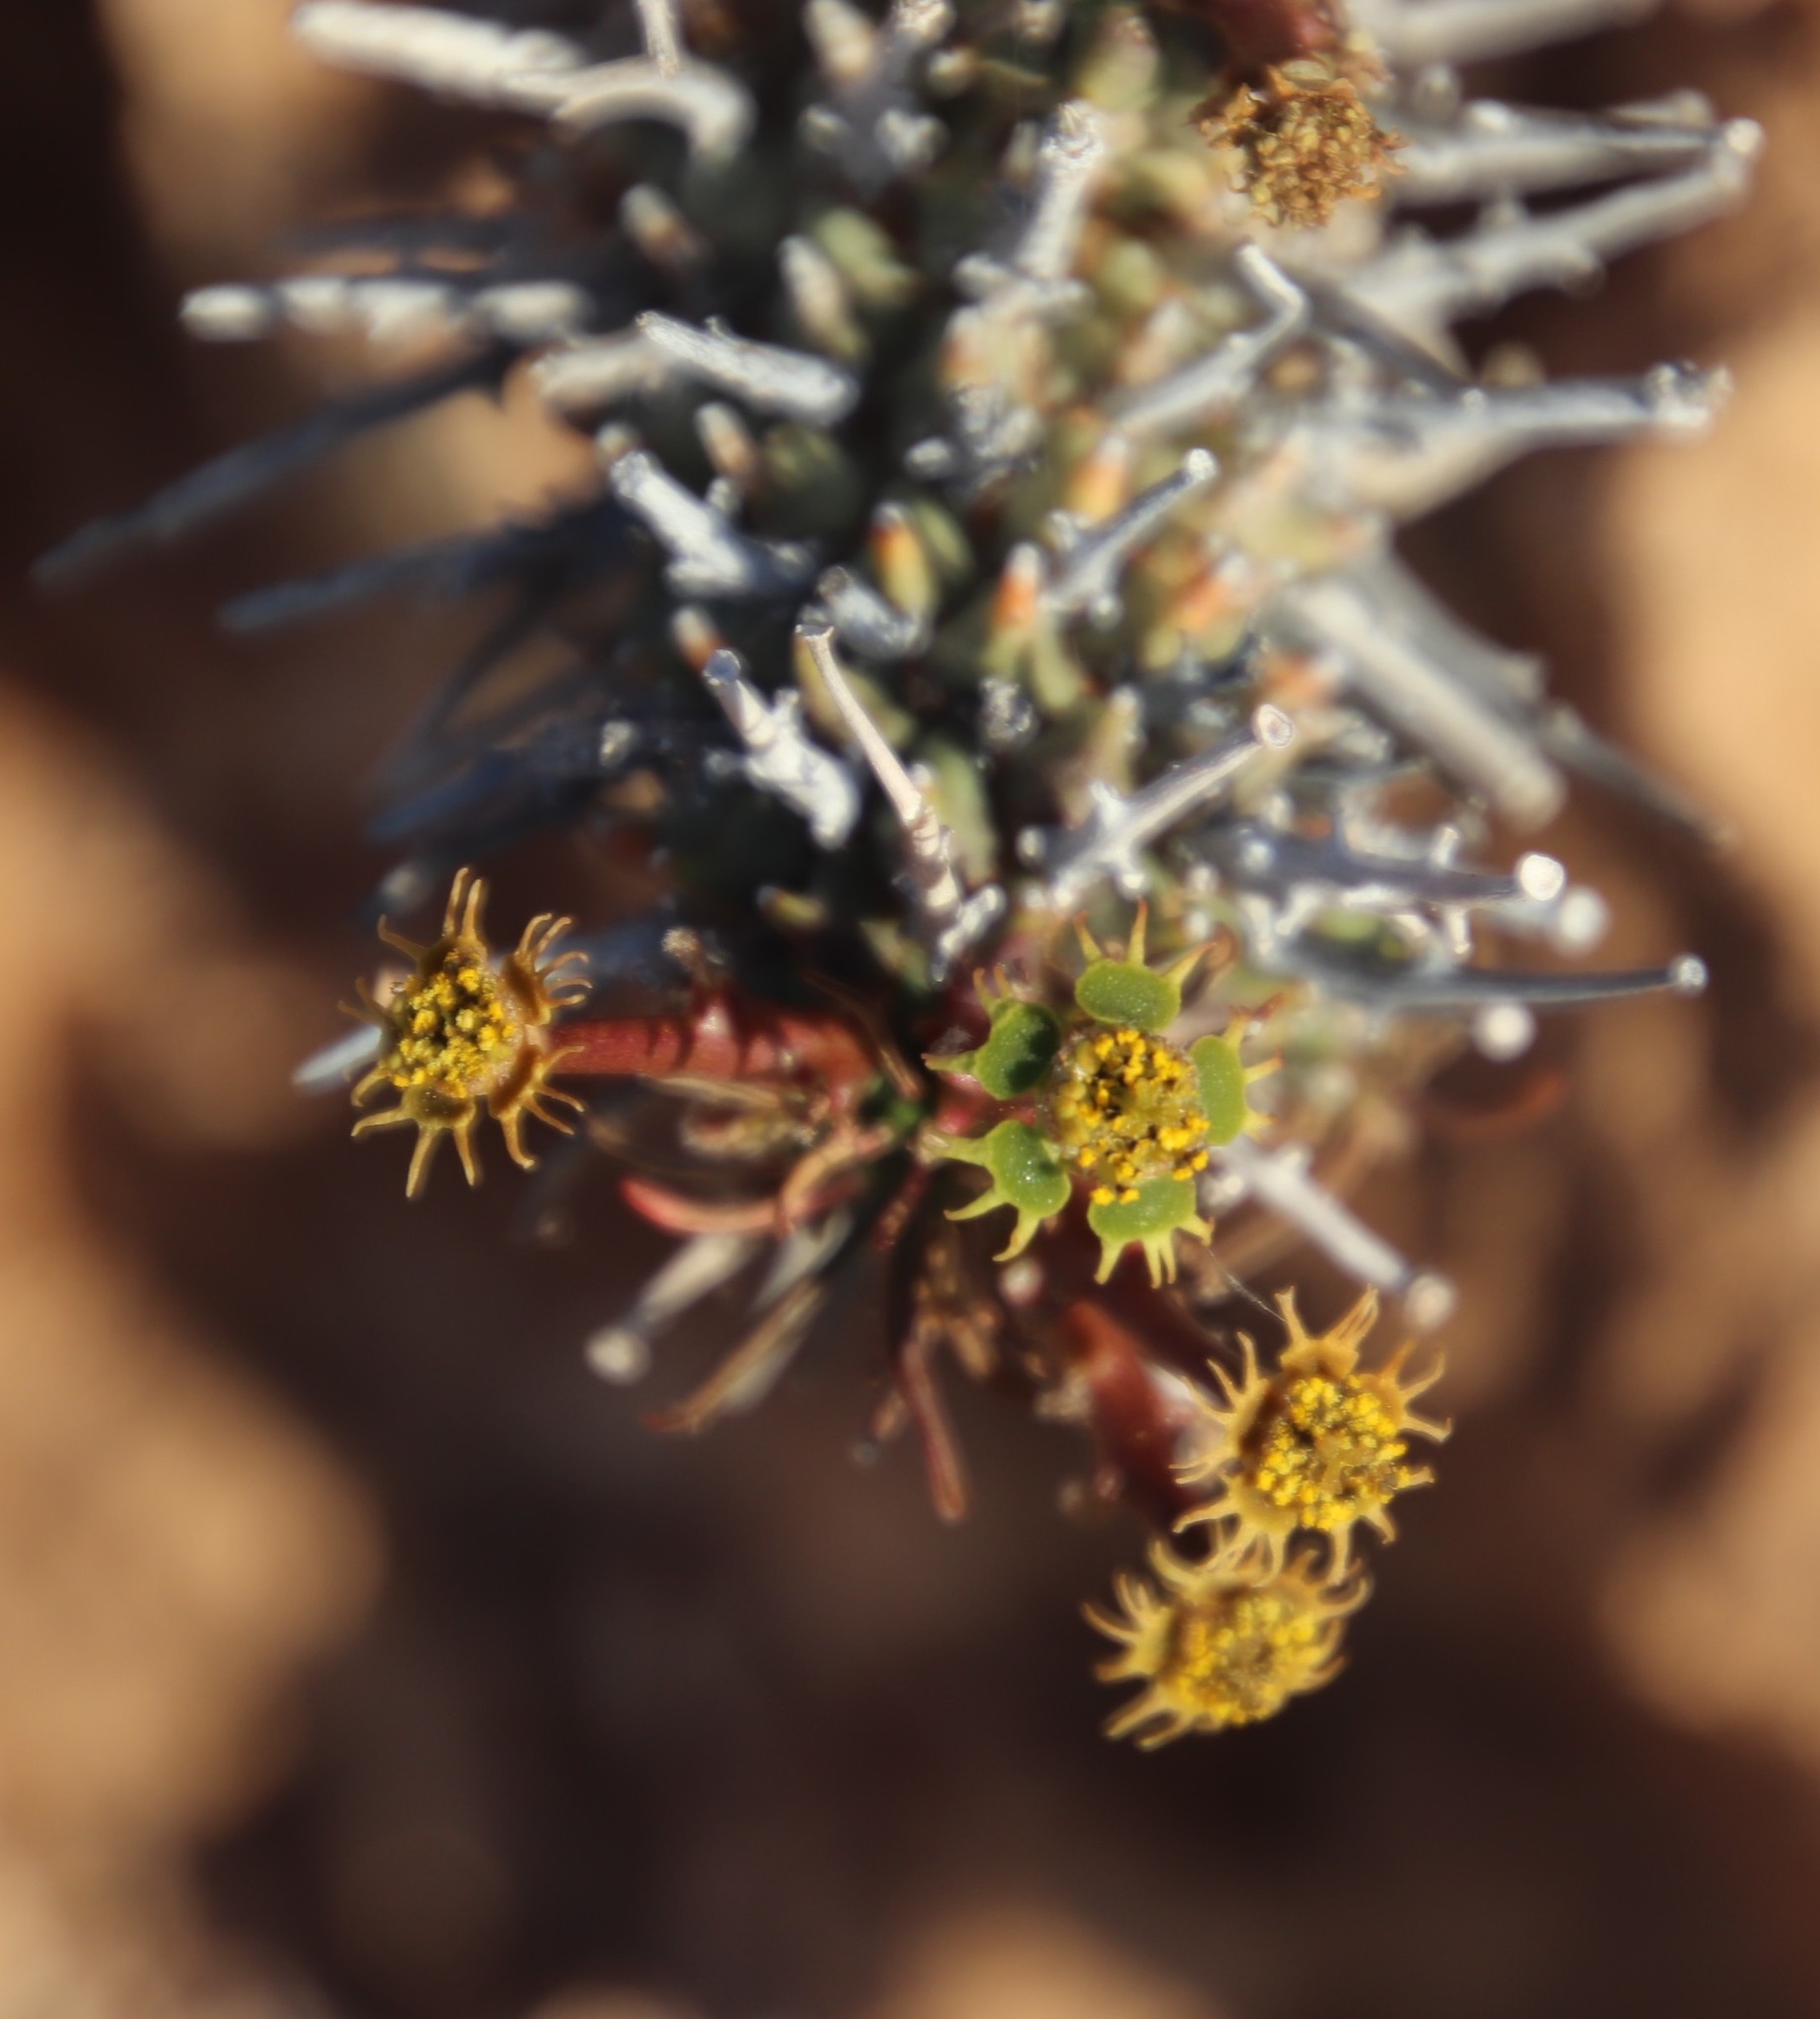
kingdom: Plantae
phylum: Tracheophyta
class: Magnoliopsida
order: Malpighiales
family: Euphorbiaceae
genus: Euphorbia
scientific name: Euphorbia multiceps
